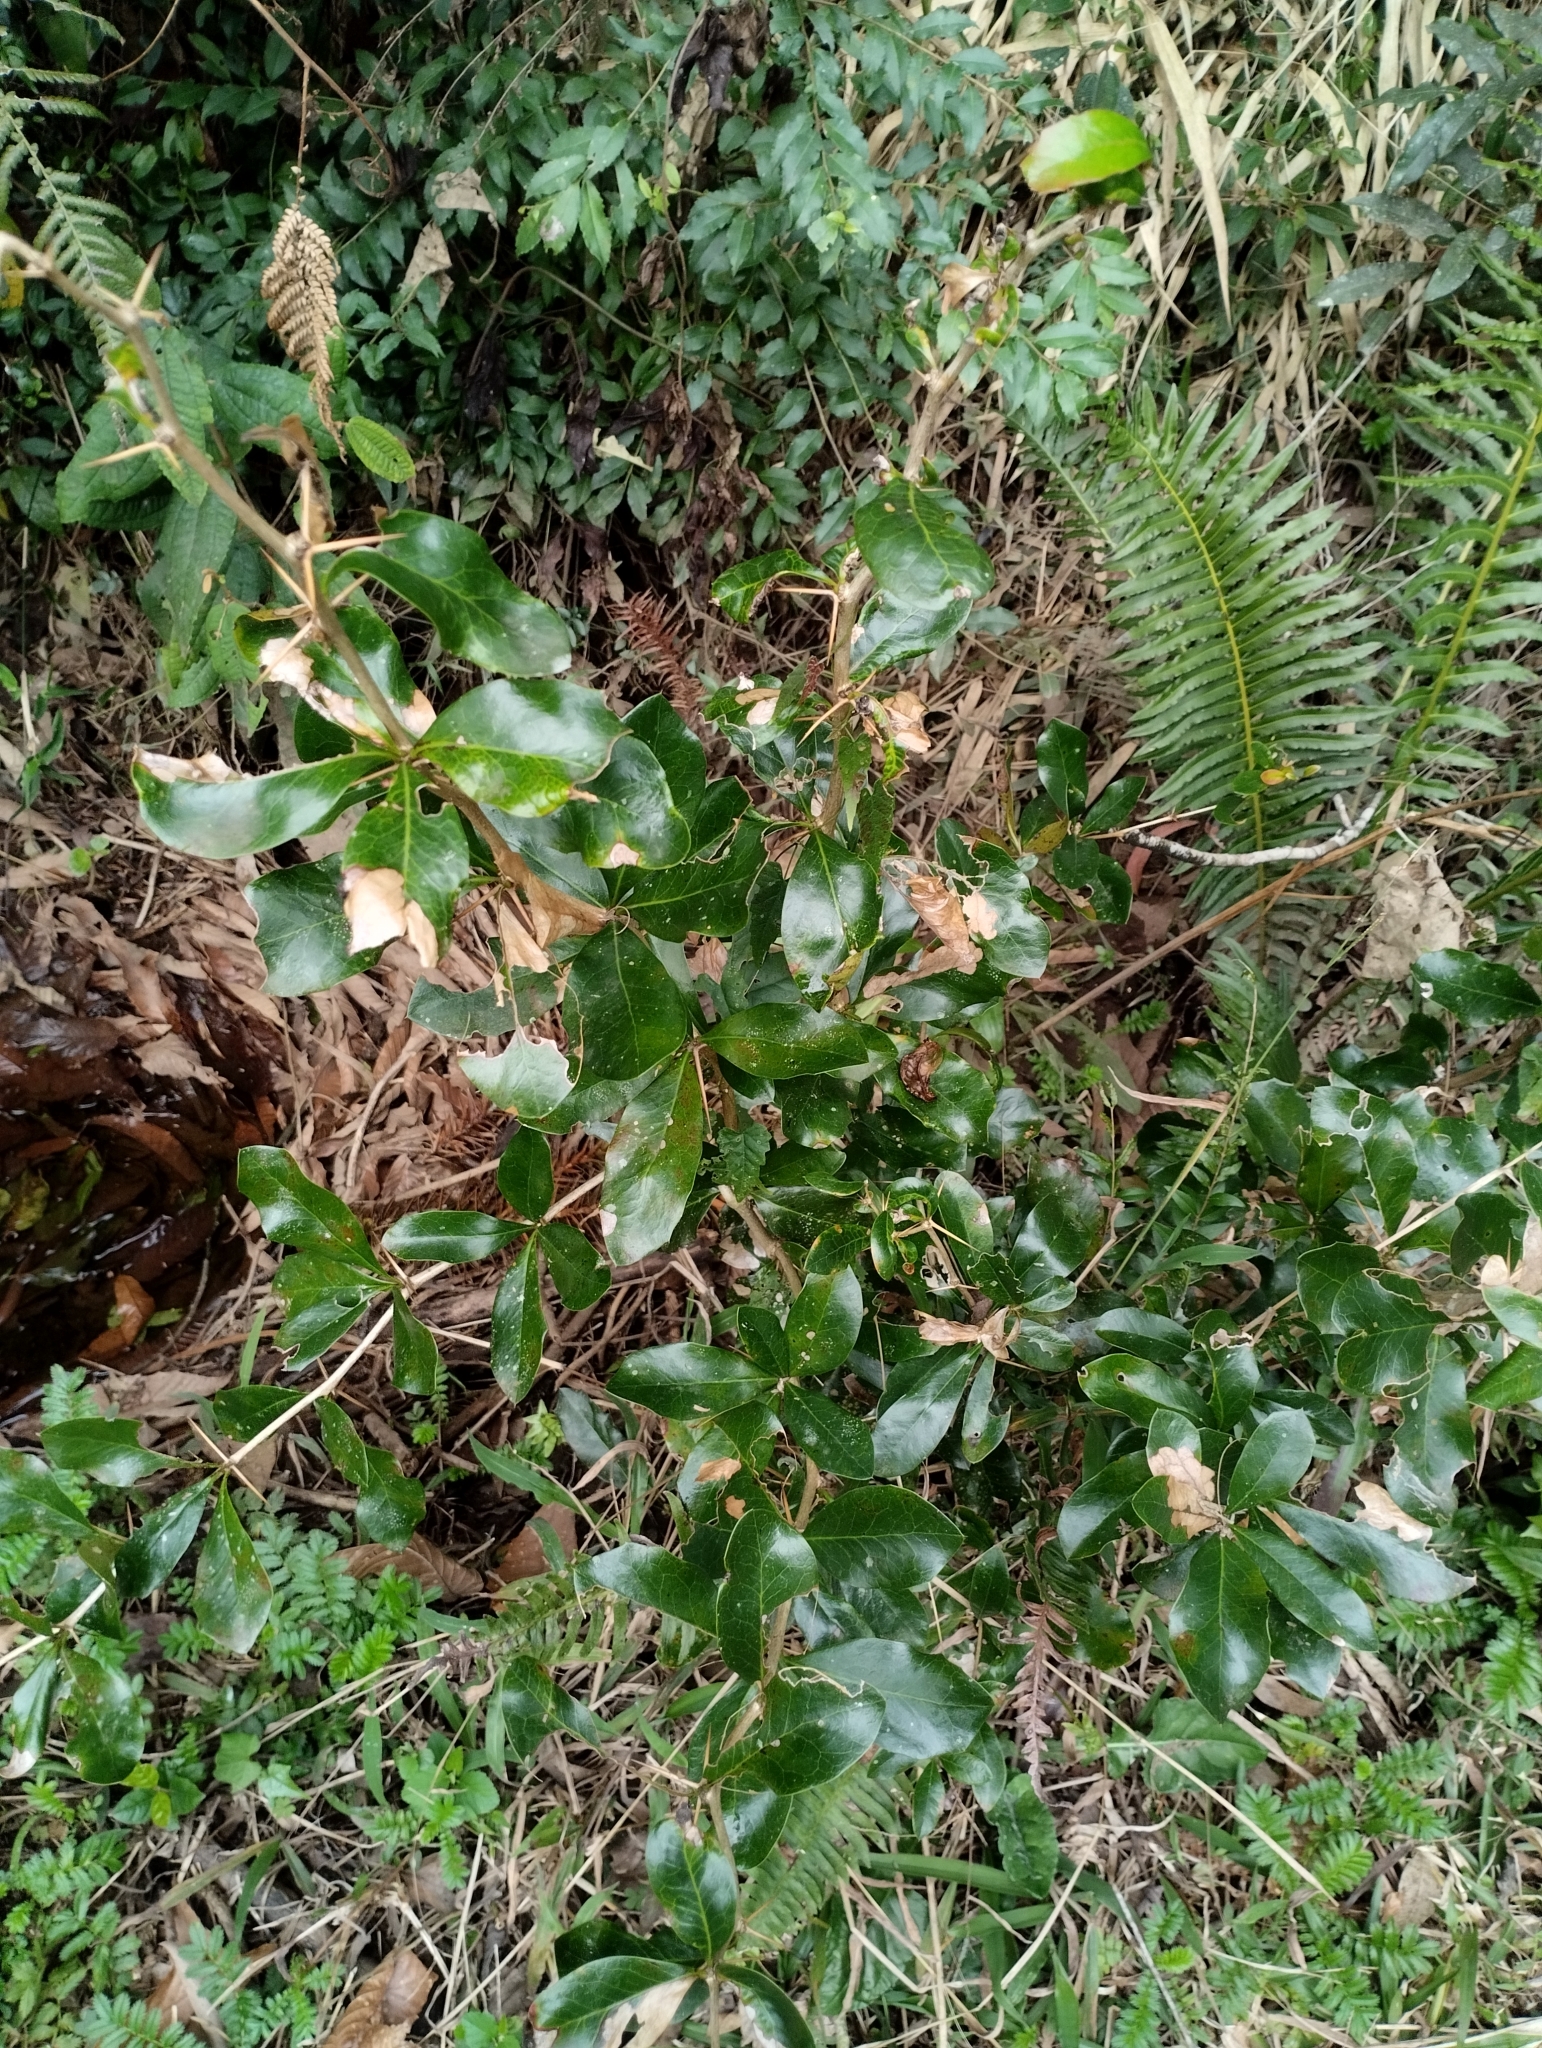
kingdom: Plantae
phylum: Tracheophyta
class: Magnoliopsida
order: Ranunculales
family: Berberidaceae
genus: Berberis
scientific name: Berberis laurina
